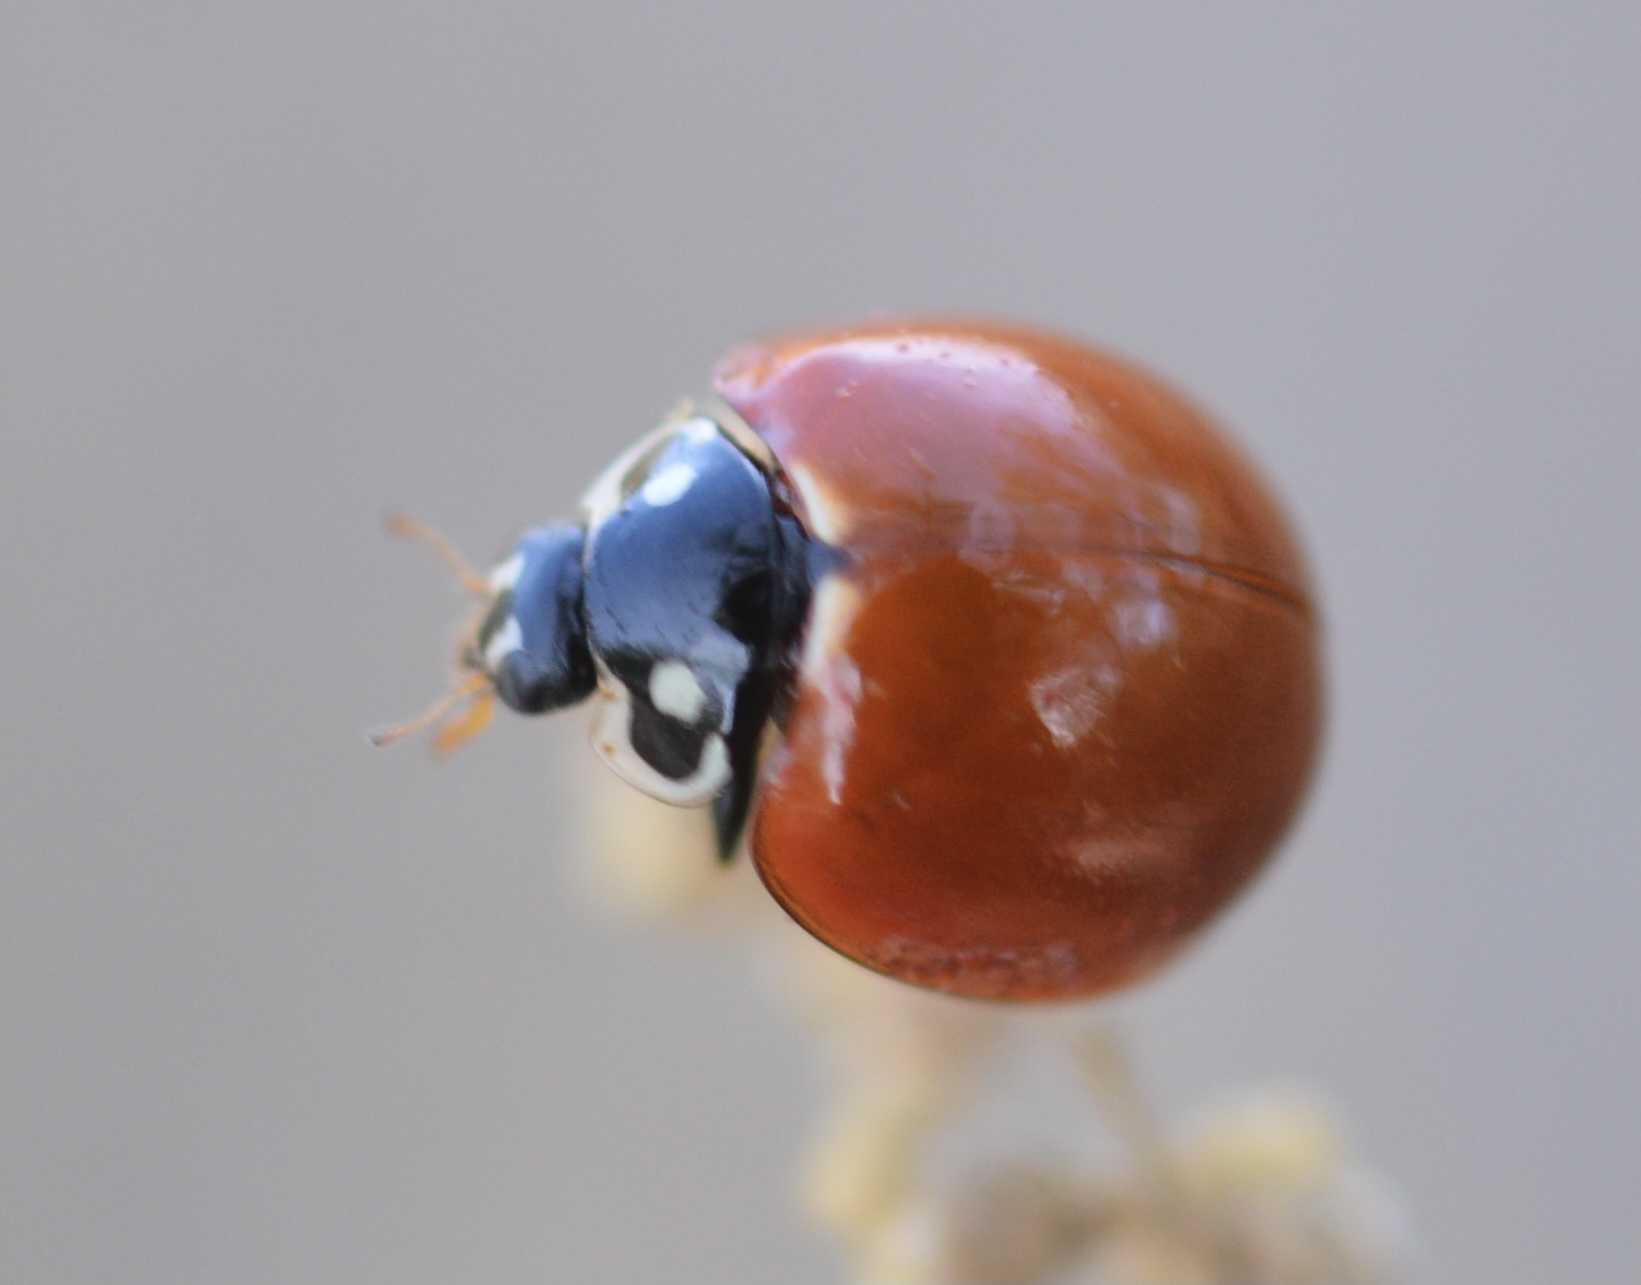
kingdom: Animalia
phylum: Arthropoda
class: Insecta
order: Coleoptera
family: Coccinellidae
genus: Cycloneda
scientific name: Cycloneda sanguinea
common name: Ladybird beetle
